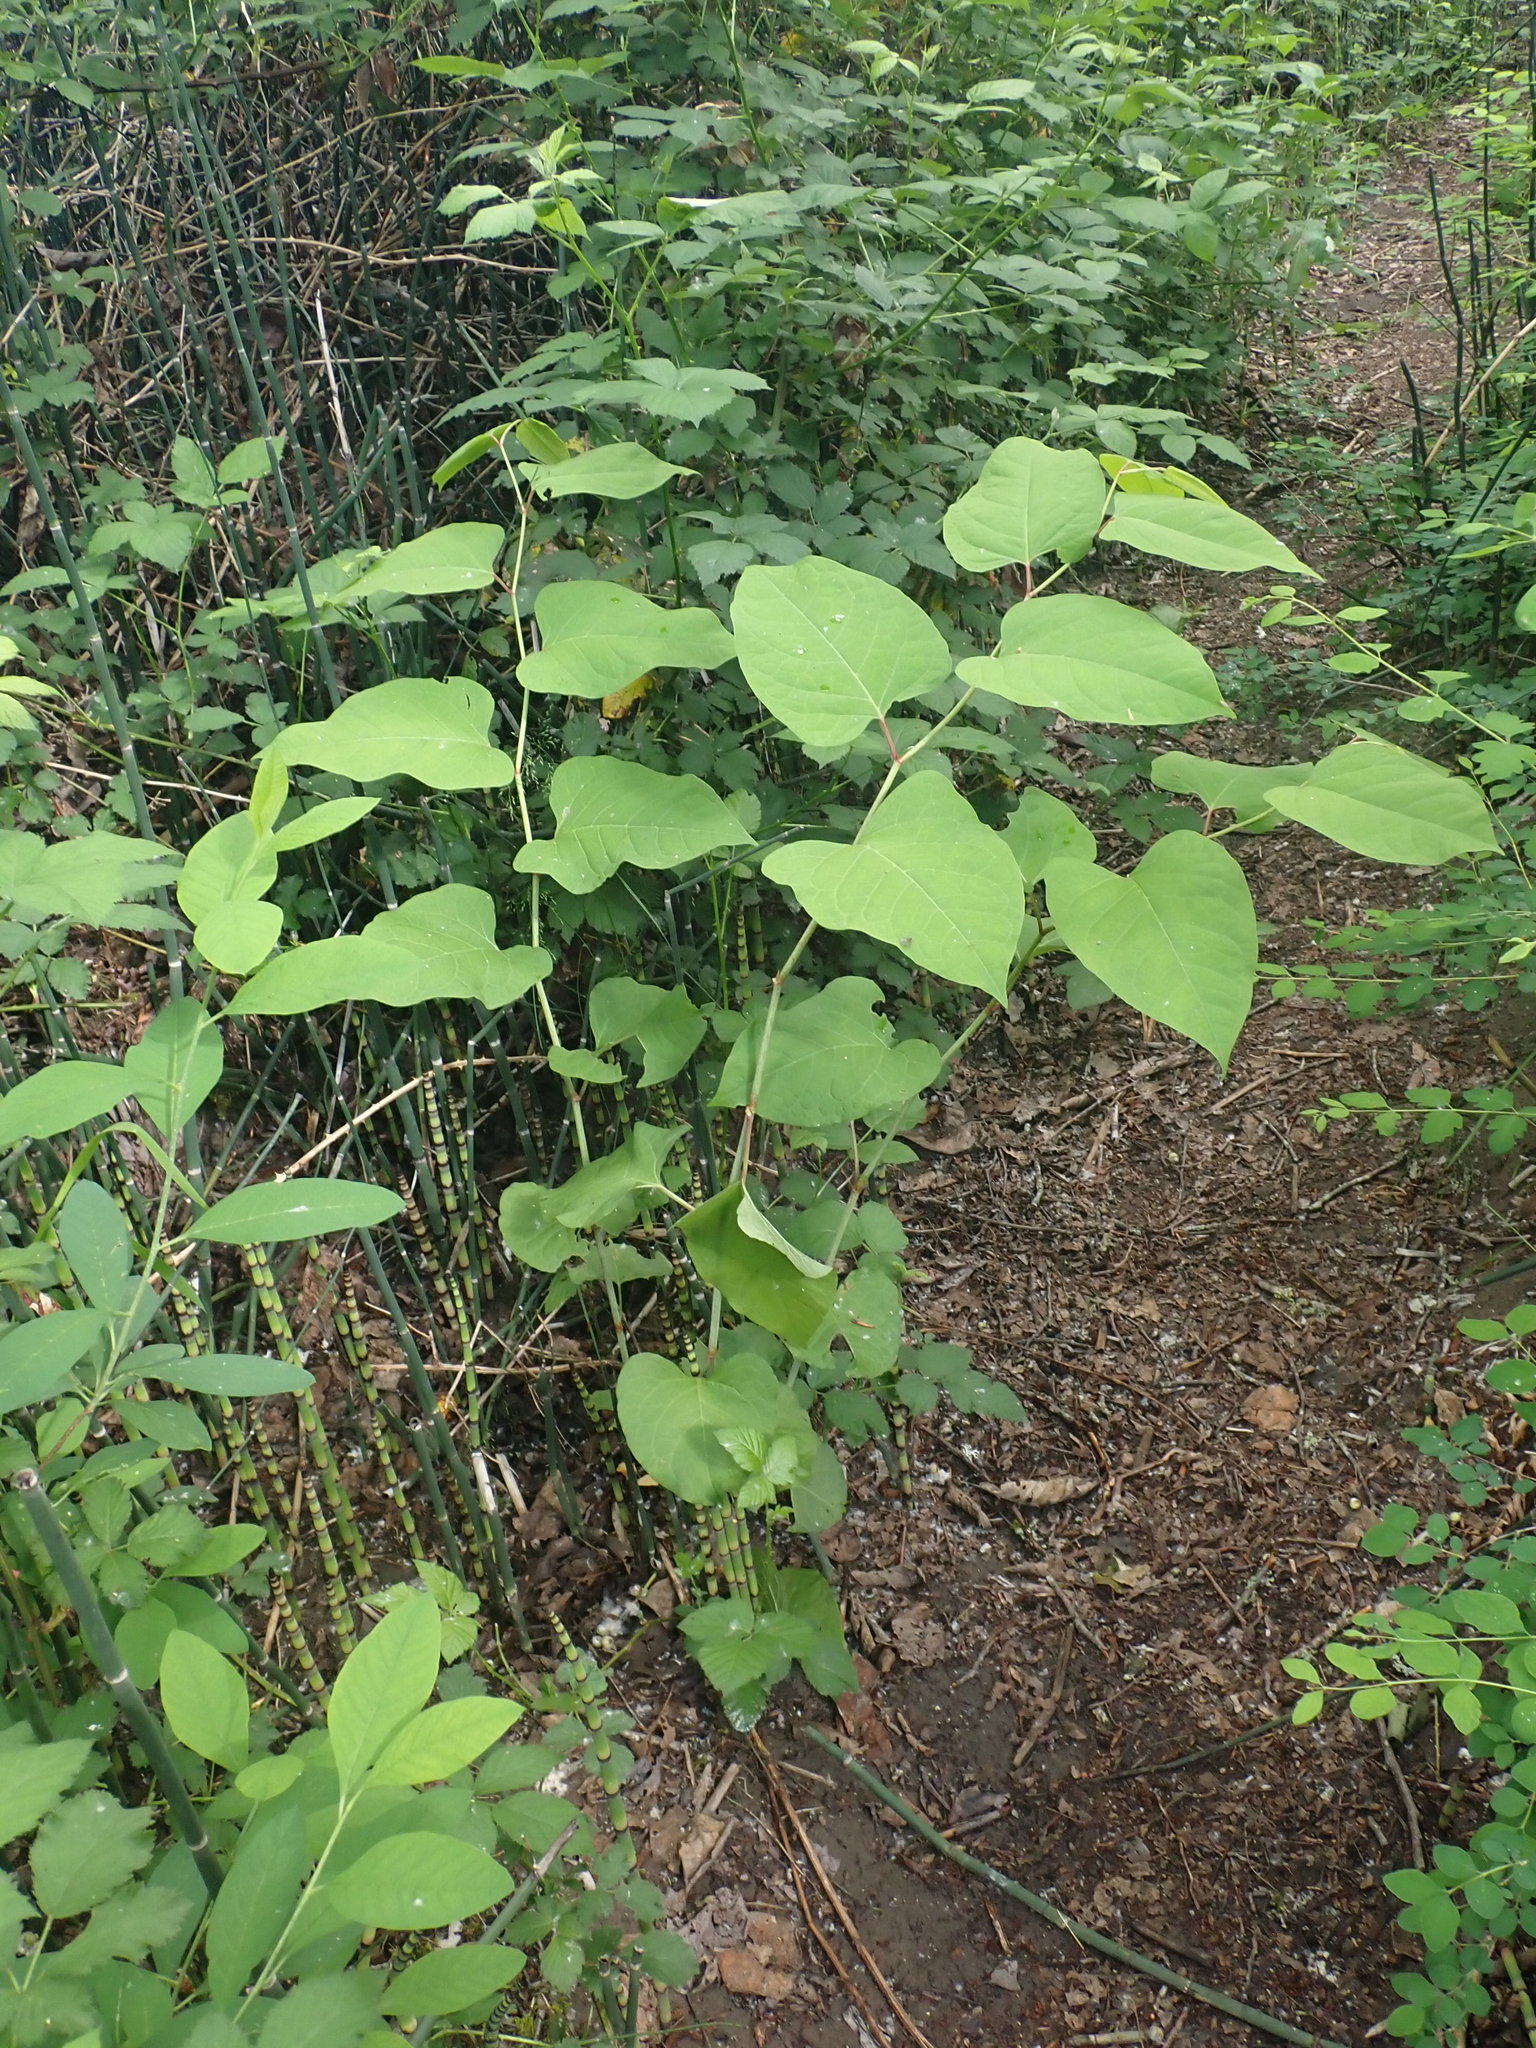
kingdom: Plantae
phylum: Tracheophyta
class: Magnoliopsida
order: Caryophyllales
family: Polygonaceae
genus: Reynoutria
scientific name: Reynoutria japonica
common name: Japanese knotweed
